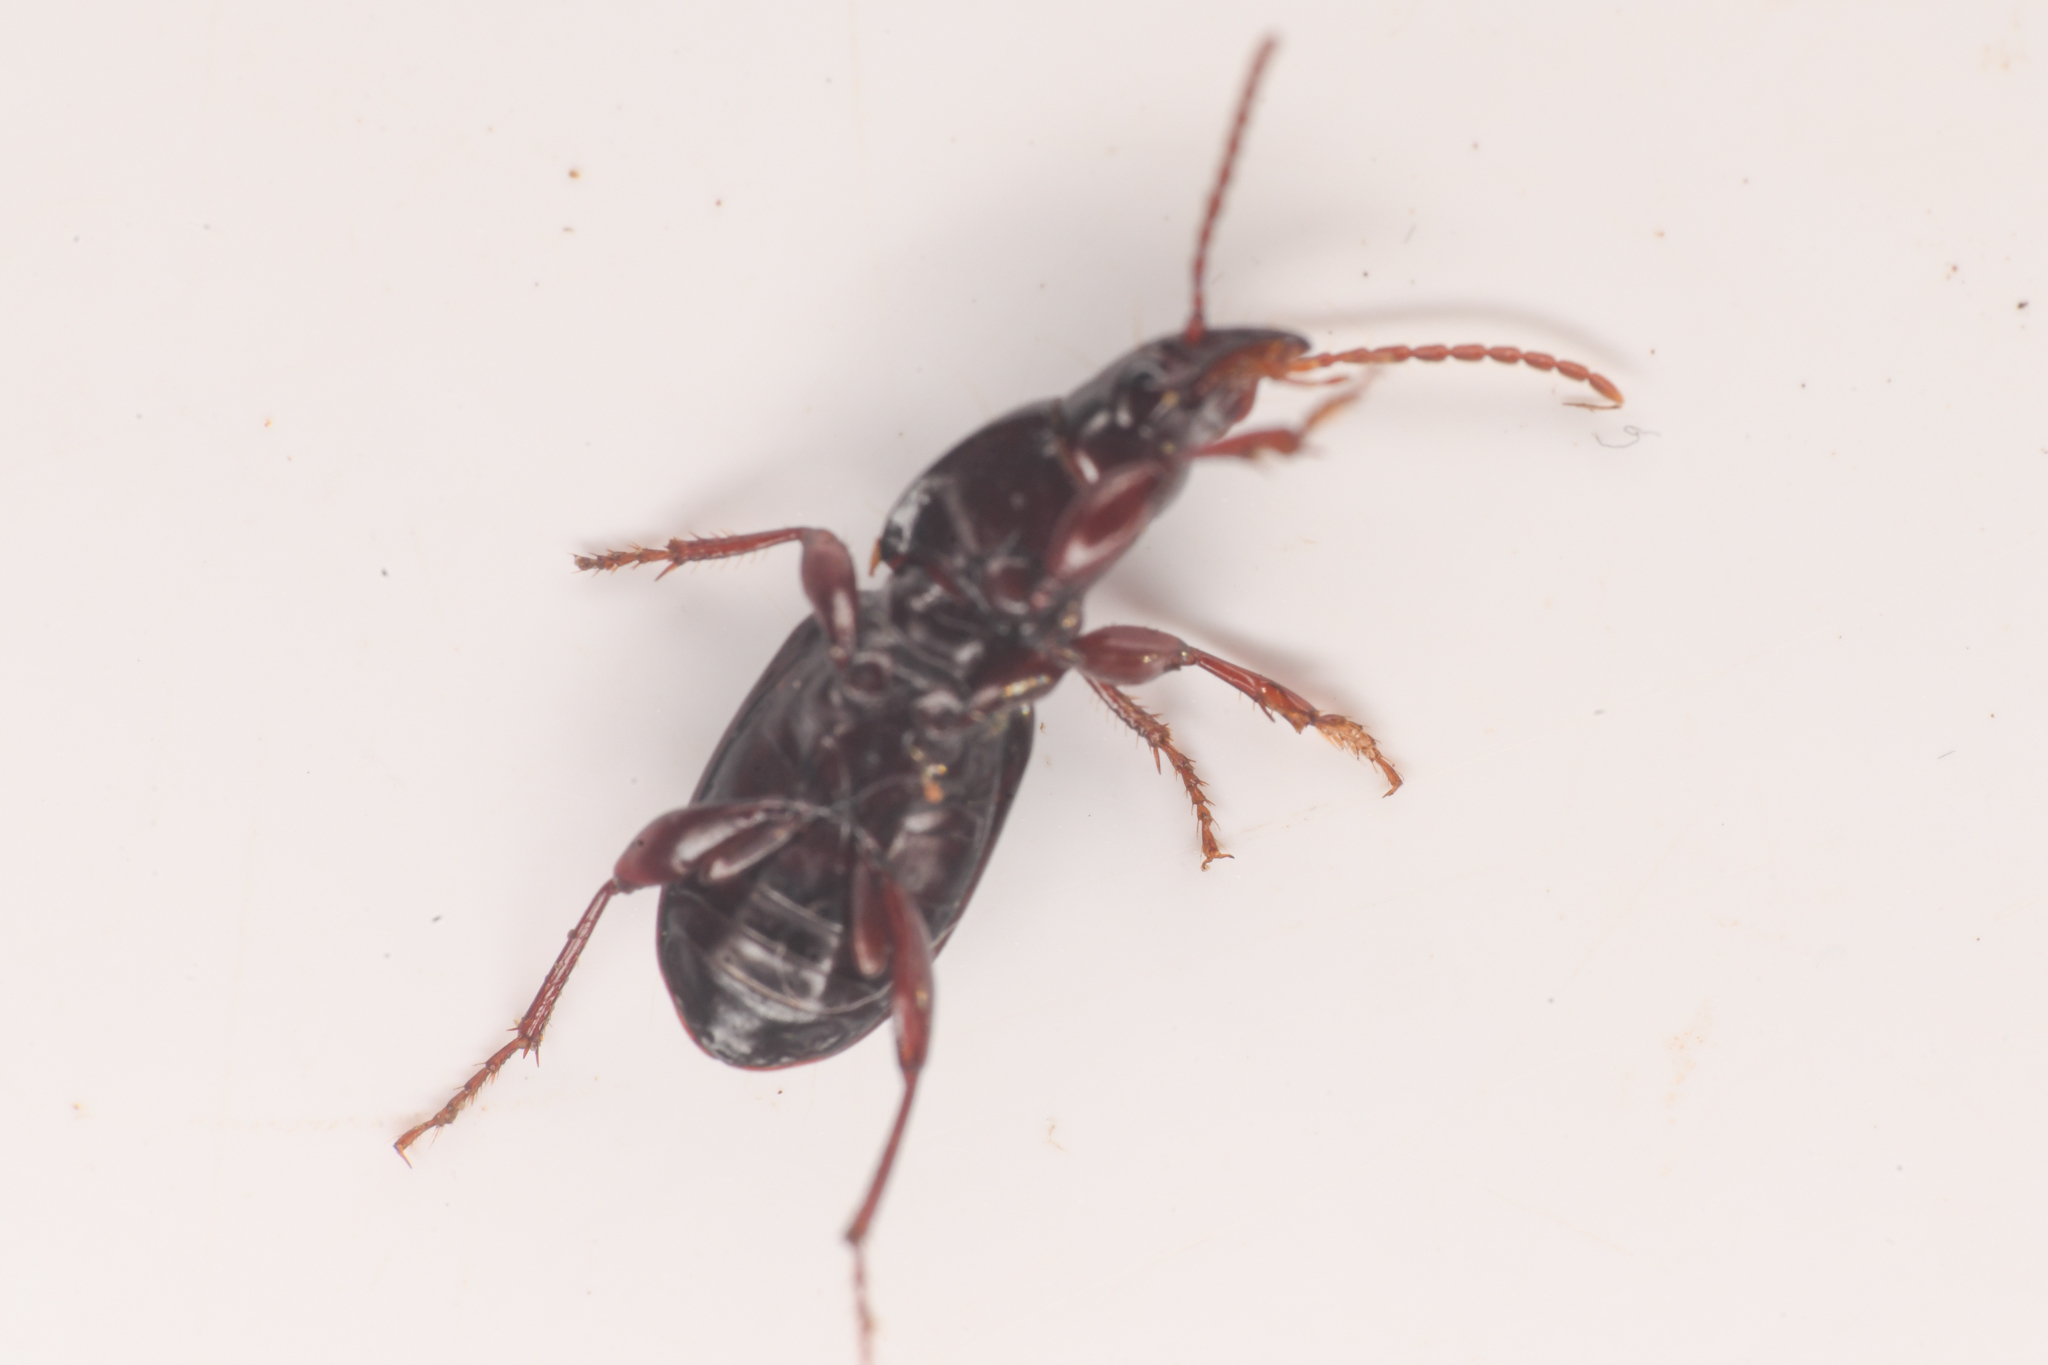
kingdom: Animalia
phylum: Arthropoda
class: Insecta
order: Coleoptera
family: Carabidae
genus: Pterostichus
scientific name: Pterostichus pumilus
